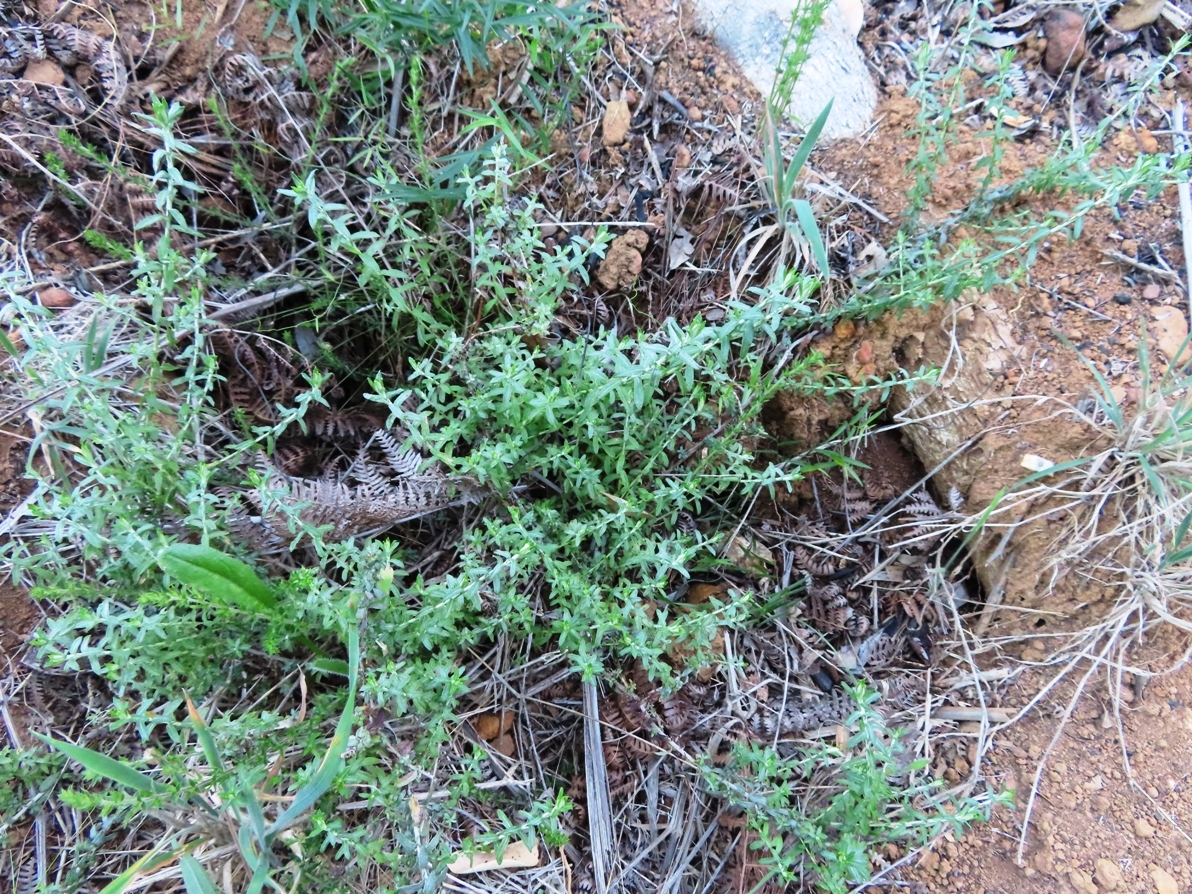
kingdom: Plantae
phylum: Tracheophyta
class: Magnoliopsida
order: Asterales
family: Asteraceae
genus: Helichrysum
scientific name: Helichrysum cymosum
